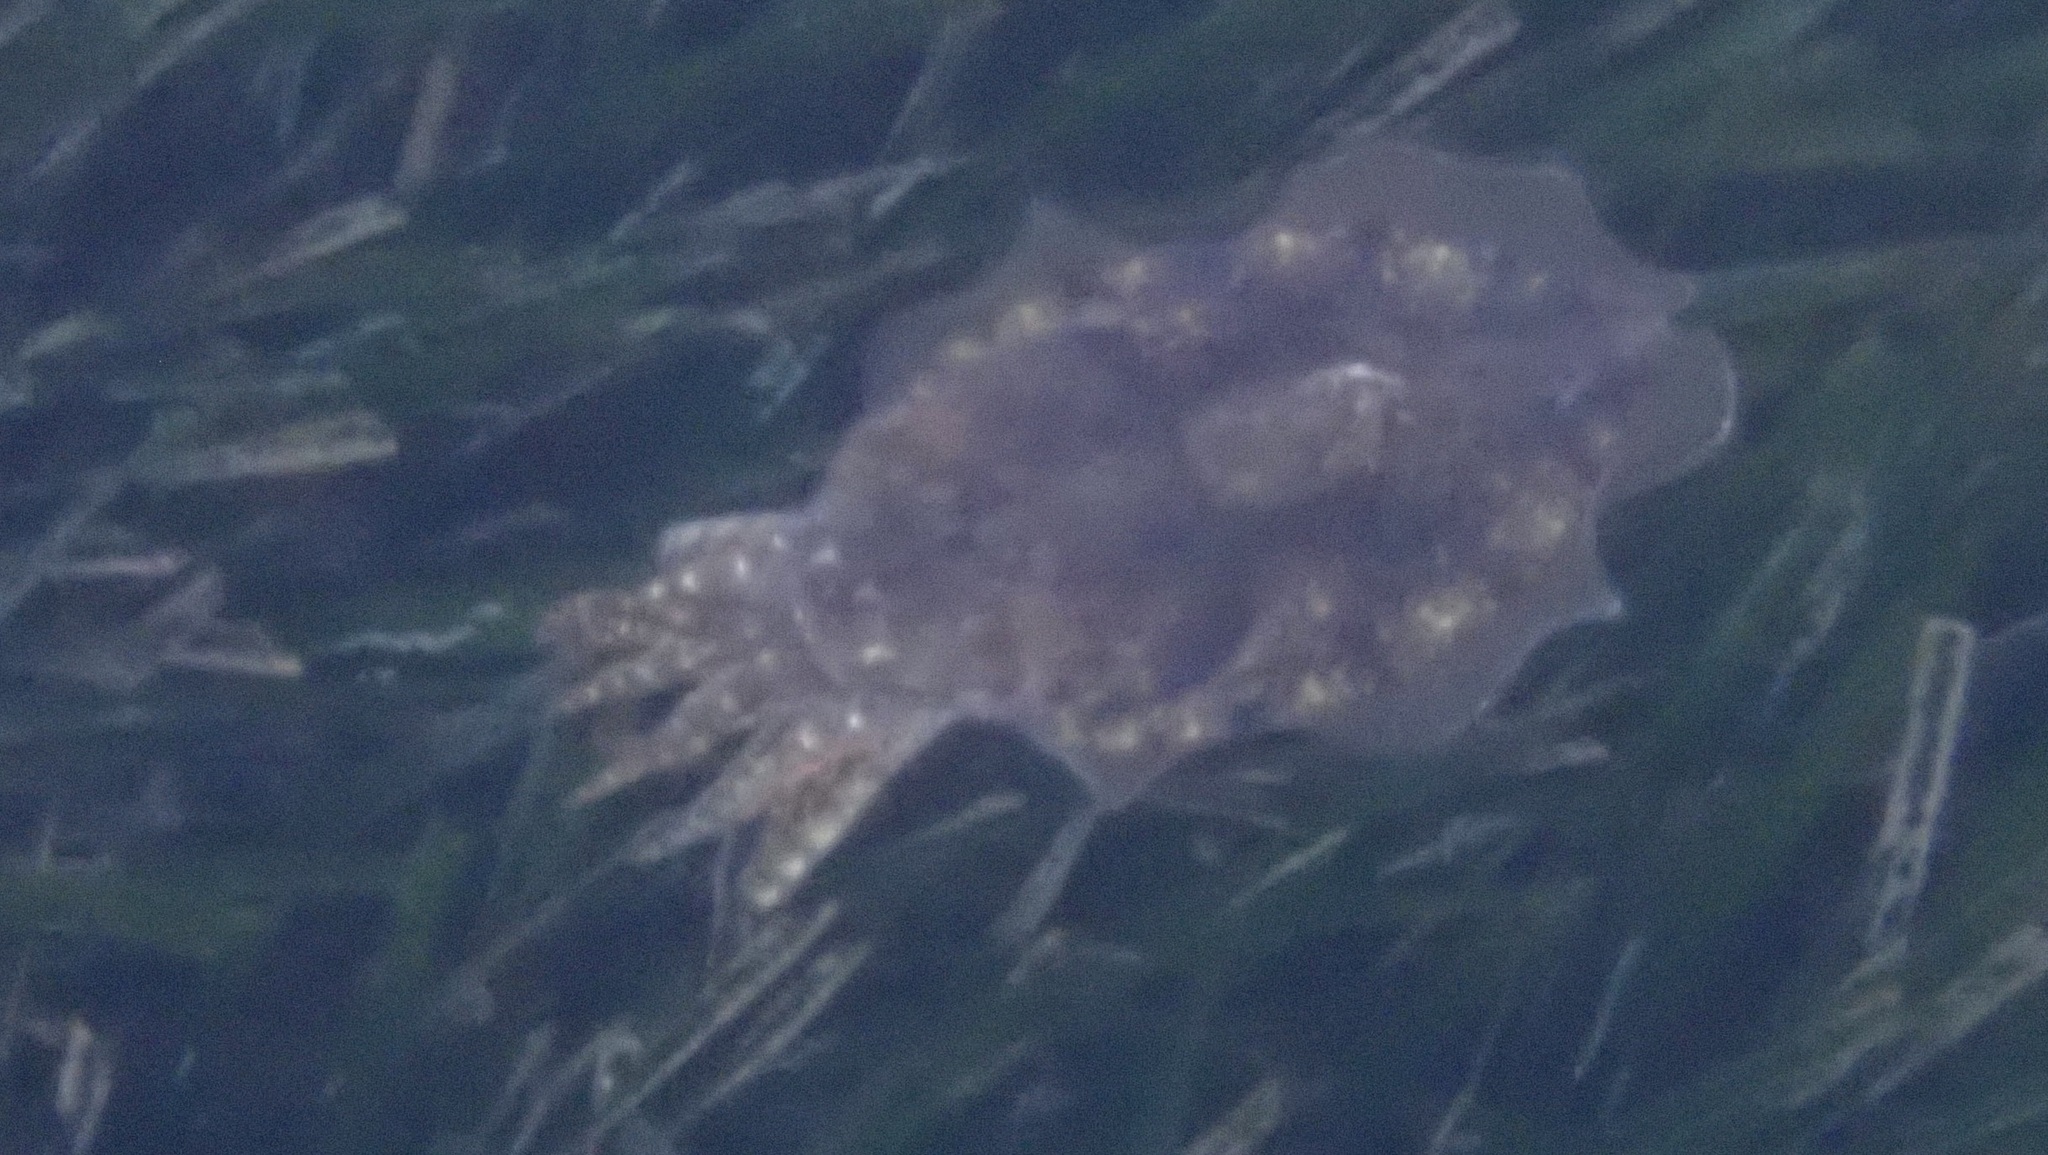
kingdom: Animalia
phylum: Mollusca
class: Cephalopoda
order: Sepiida
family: Sepiidae
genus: Sepia
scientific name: Sepia officinalis
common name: Common cuttlefish
